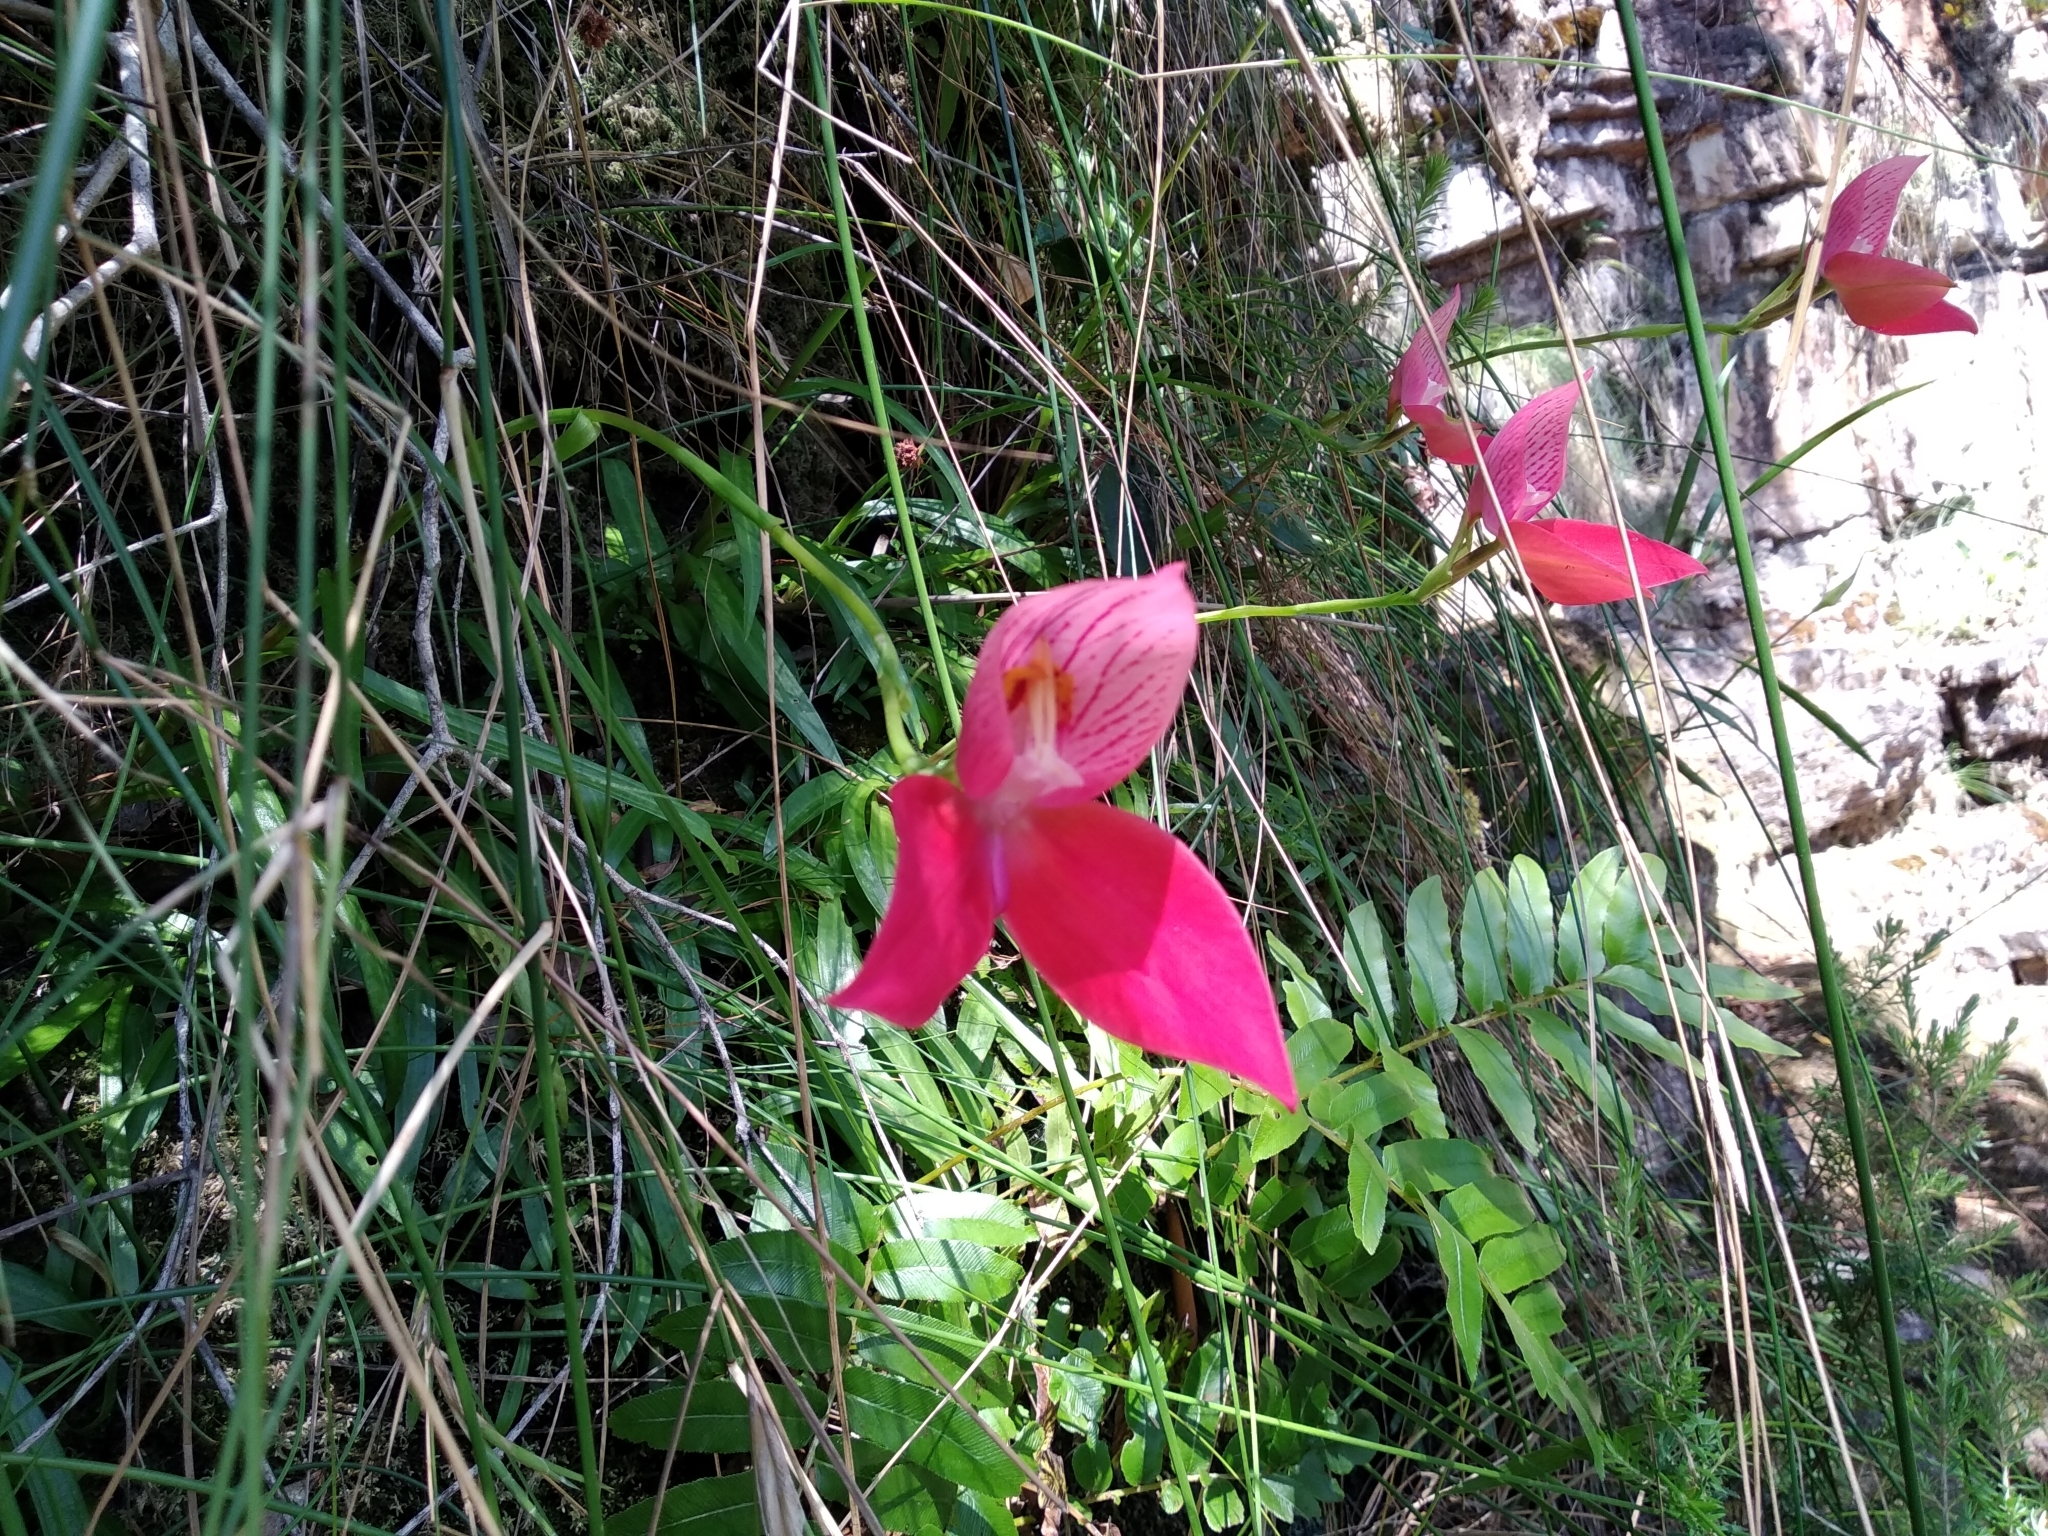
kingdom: Plantae
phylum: Tracheophyta
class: Liliopsida
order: Asparagales
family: Orchidaceae
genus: Disa
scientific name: Disa uniflora
